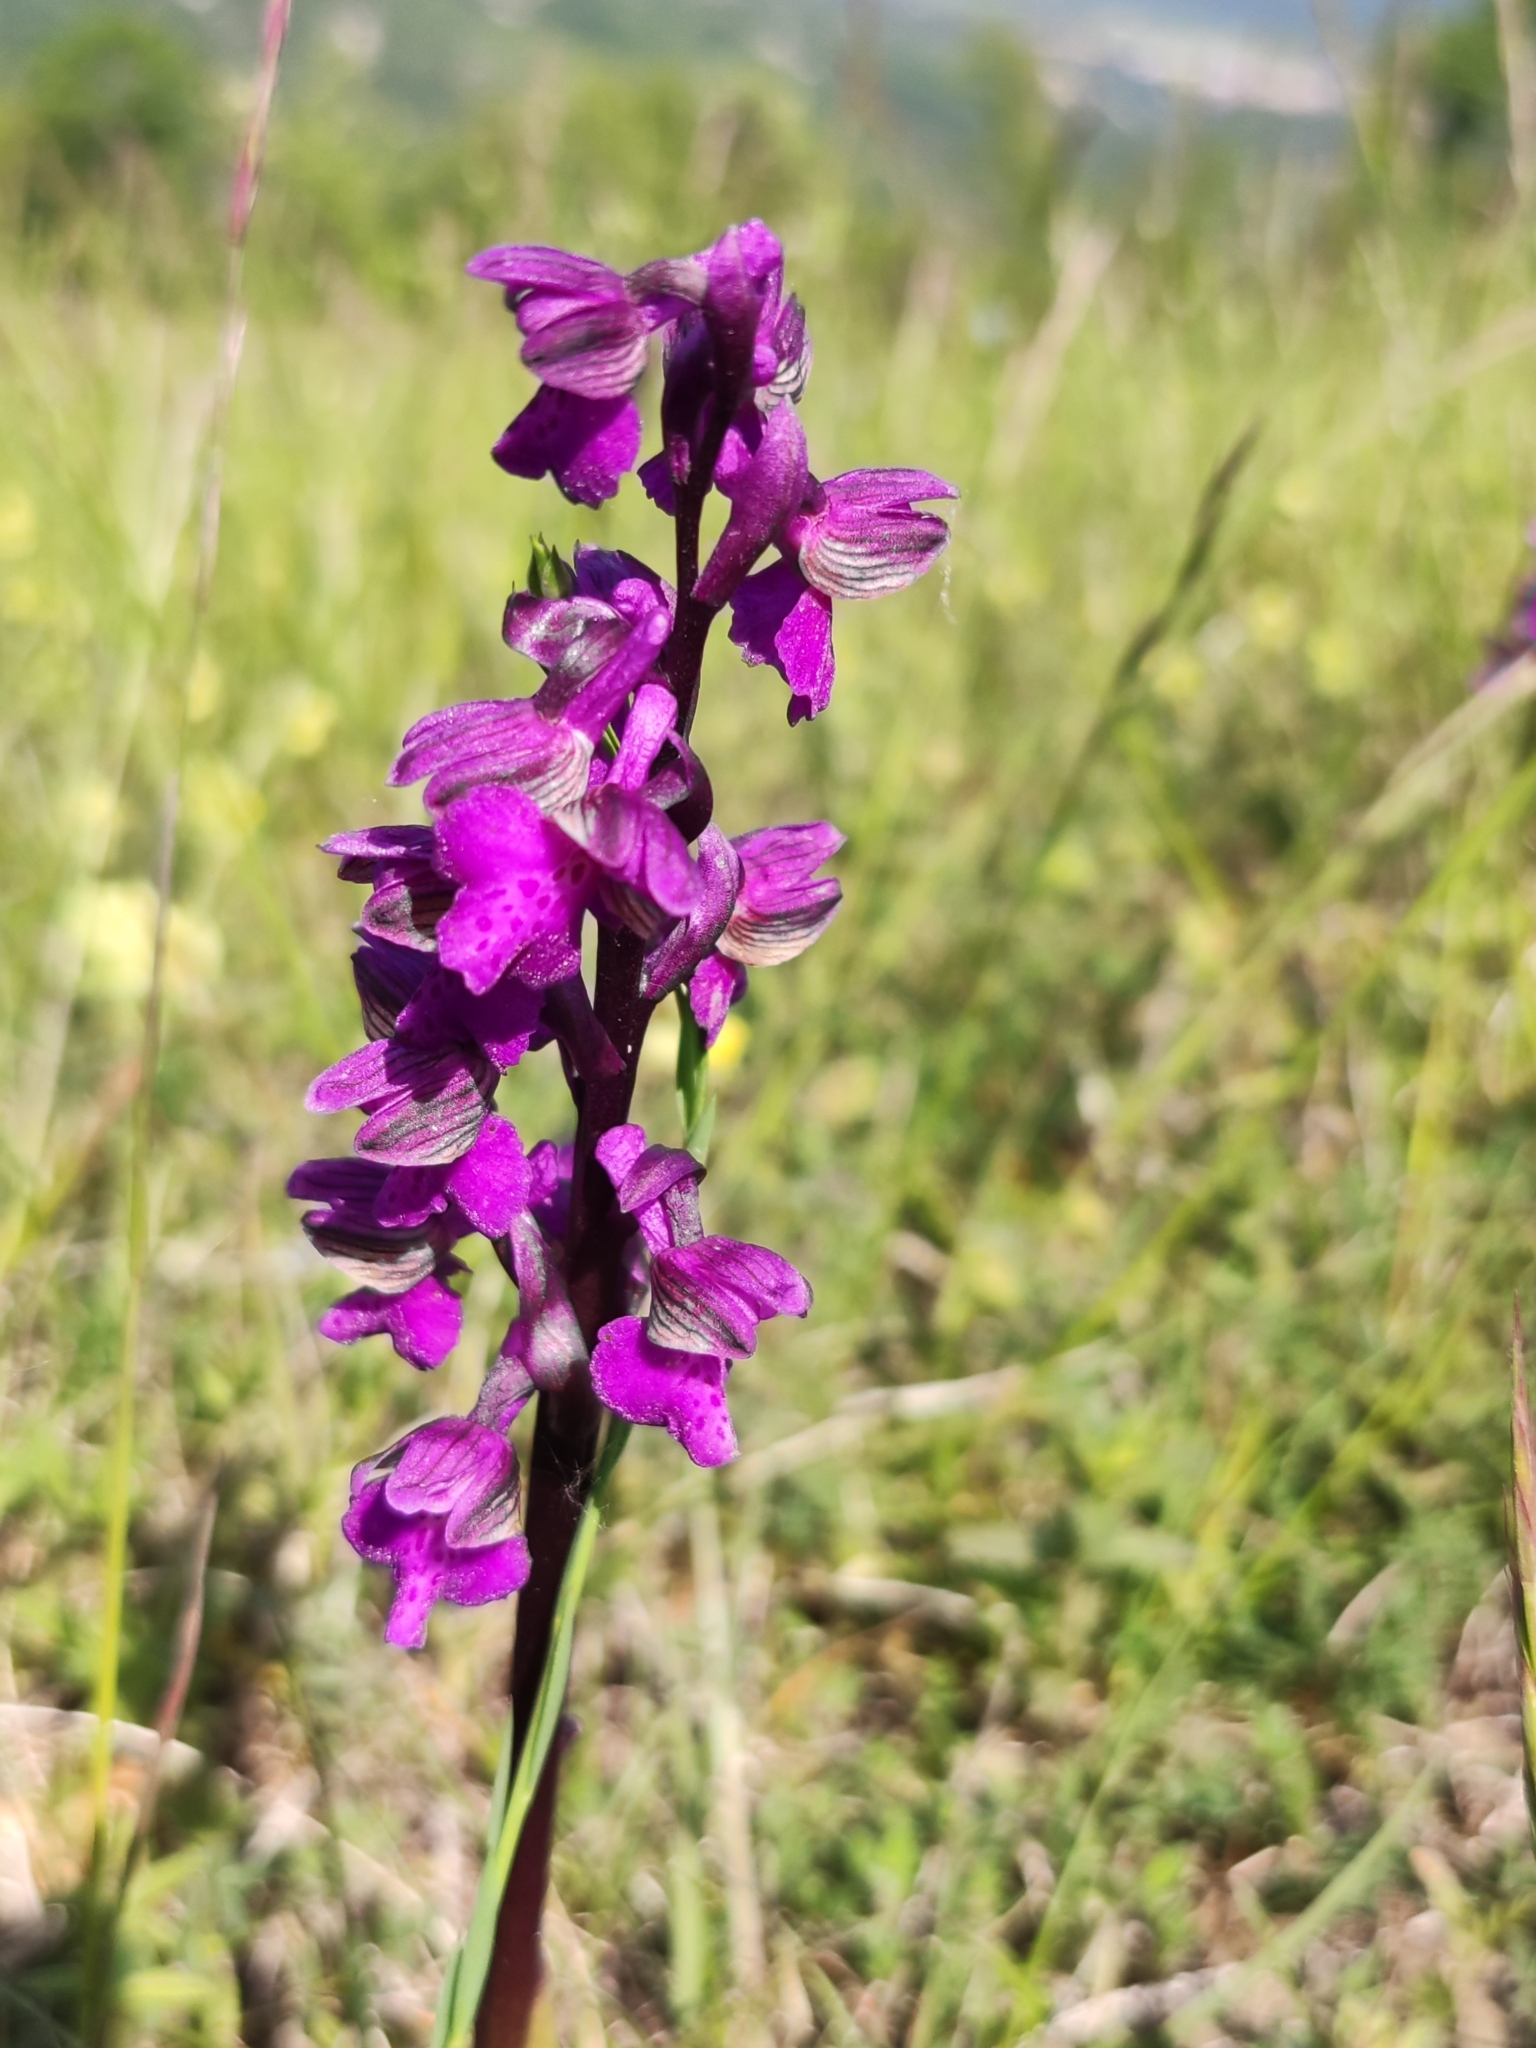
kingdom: Plantae
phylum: Tracheophyta
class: Liliopsida
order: Asparagales
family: Orchidaceae
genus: Anacamptis
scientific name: Anacamptis morio
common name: Green-winged orchid
